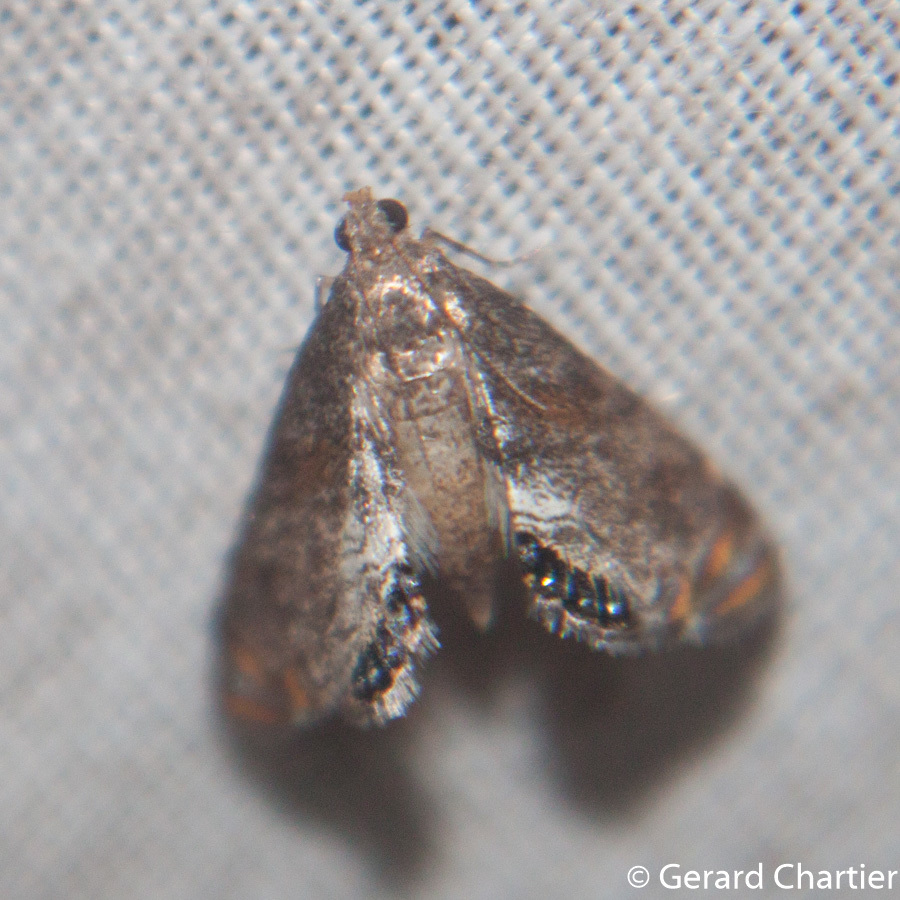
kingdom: Animalia
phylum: Arthropoda
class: Insecta
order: Lepidoptera
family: Crambidae
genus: Paracataclysta
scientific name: Paracataclysta fuscalis
